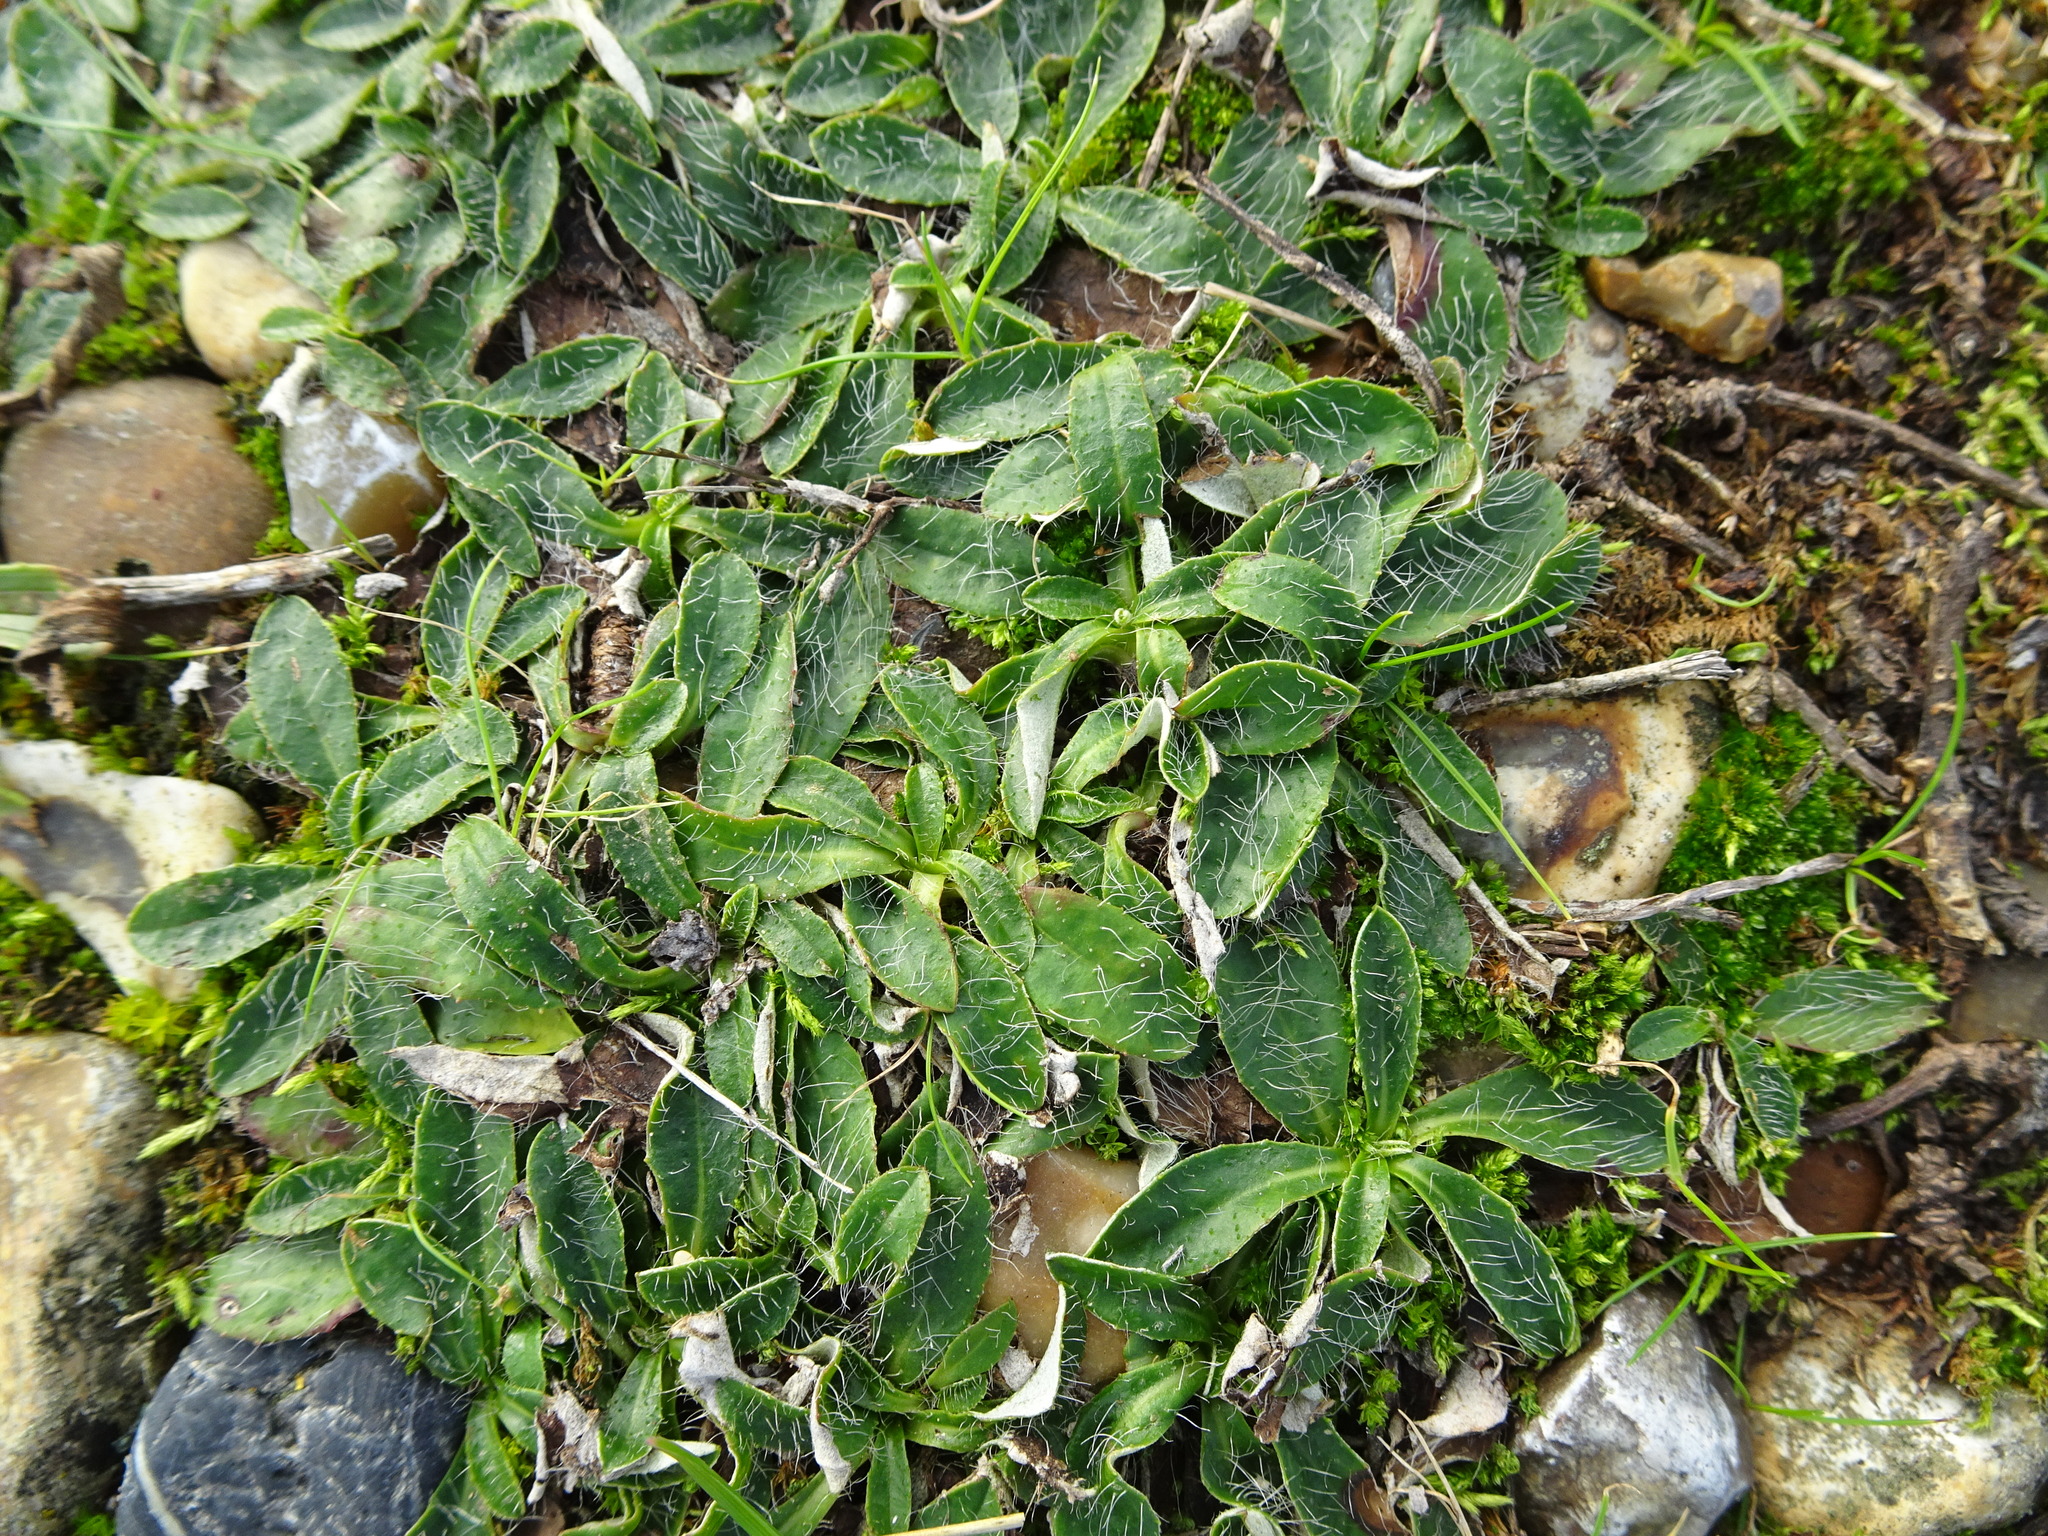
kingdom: Plantae
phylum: Tracheophyta
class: Magnoliopsida
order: Asterales
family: Asteraceae
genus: Pilosella
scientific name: Pilosella officinarum
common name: Mouse-ear hawkweed
